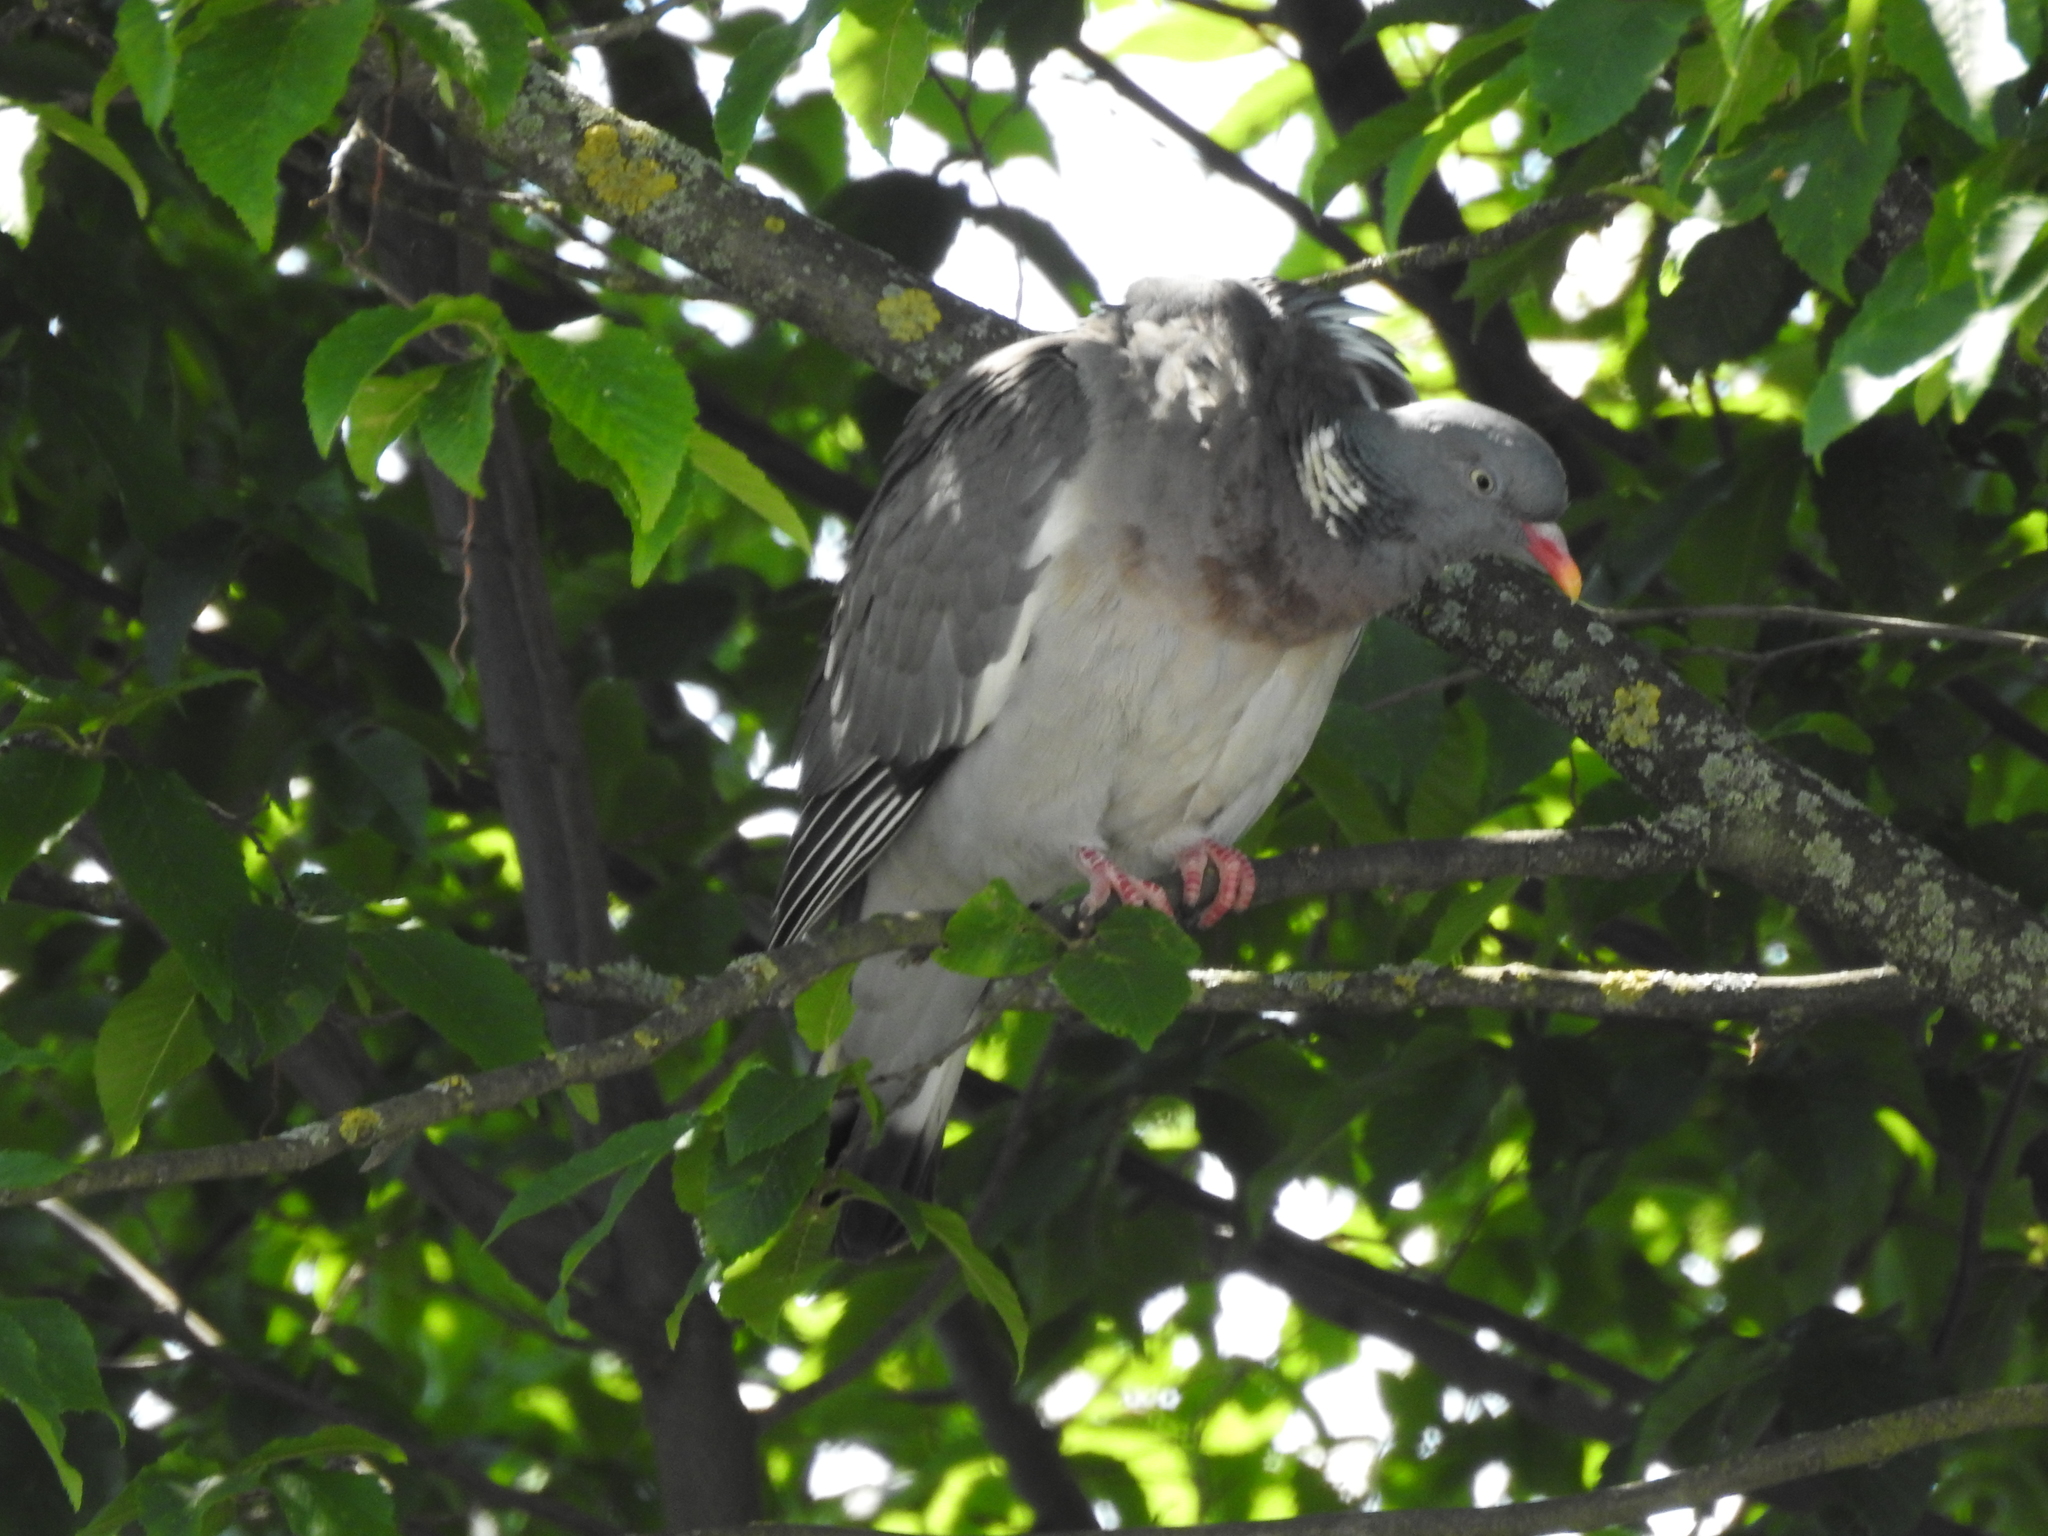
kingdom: Animalia
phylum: Chordata
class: Aves
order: Columbiformes
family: Columbidae
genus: Columba
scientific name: Columba palumbus
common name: Common wood pigeon
